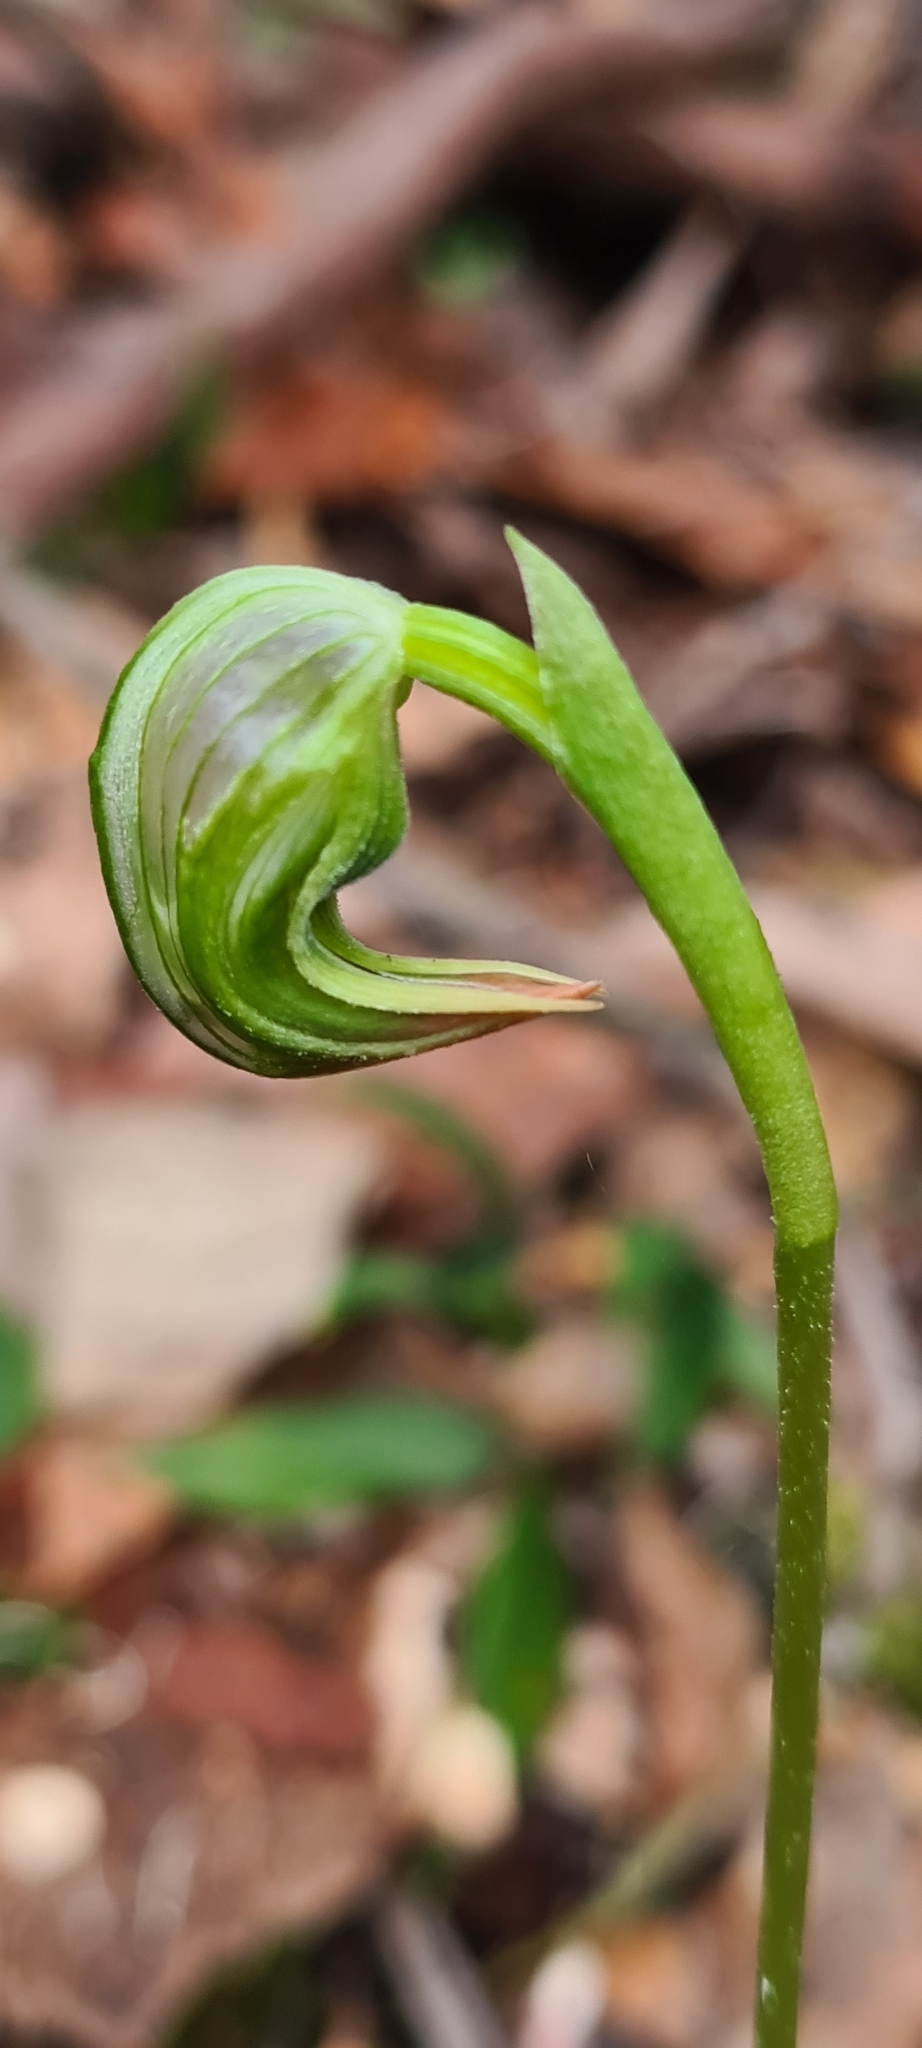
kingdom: Plantae
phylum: Tracheophyta
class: Liliopsida
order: Asparagales
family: Orchidaceae
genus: Pterostylis
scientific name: Pterostylis nutans
